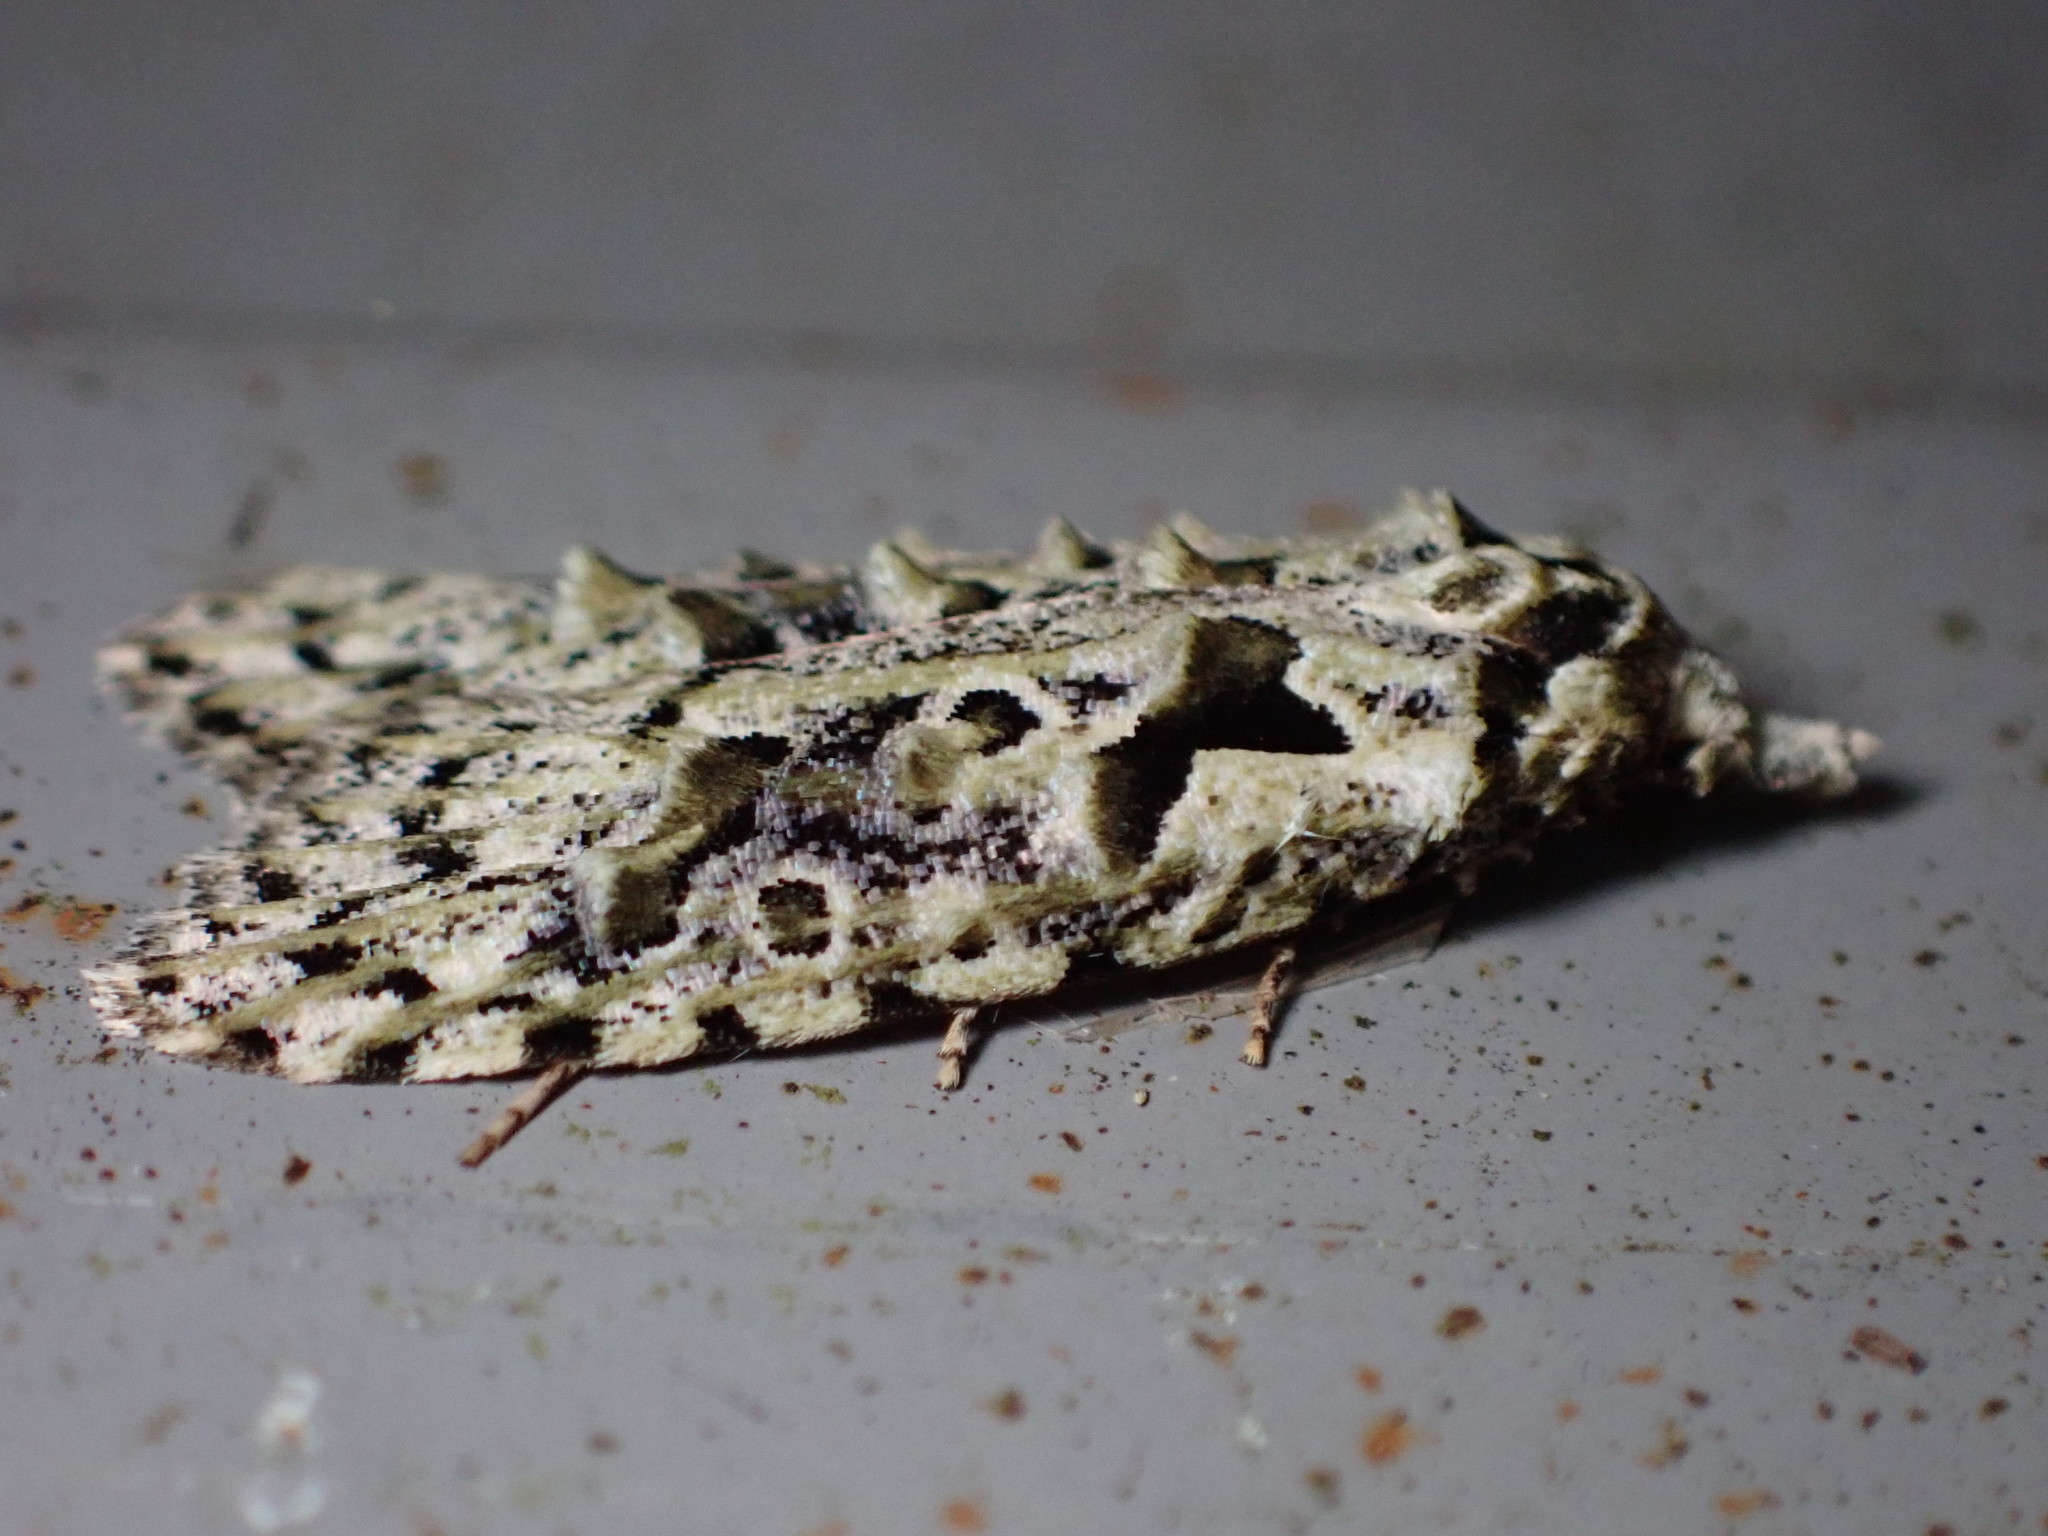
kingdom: Animalia
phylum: Arthropoda
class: Insecta
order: Lepidoptera
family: Carposinidae
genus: Carposina
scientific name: Carposina Heterocrossa eriphylla
